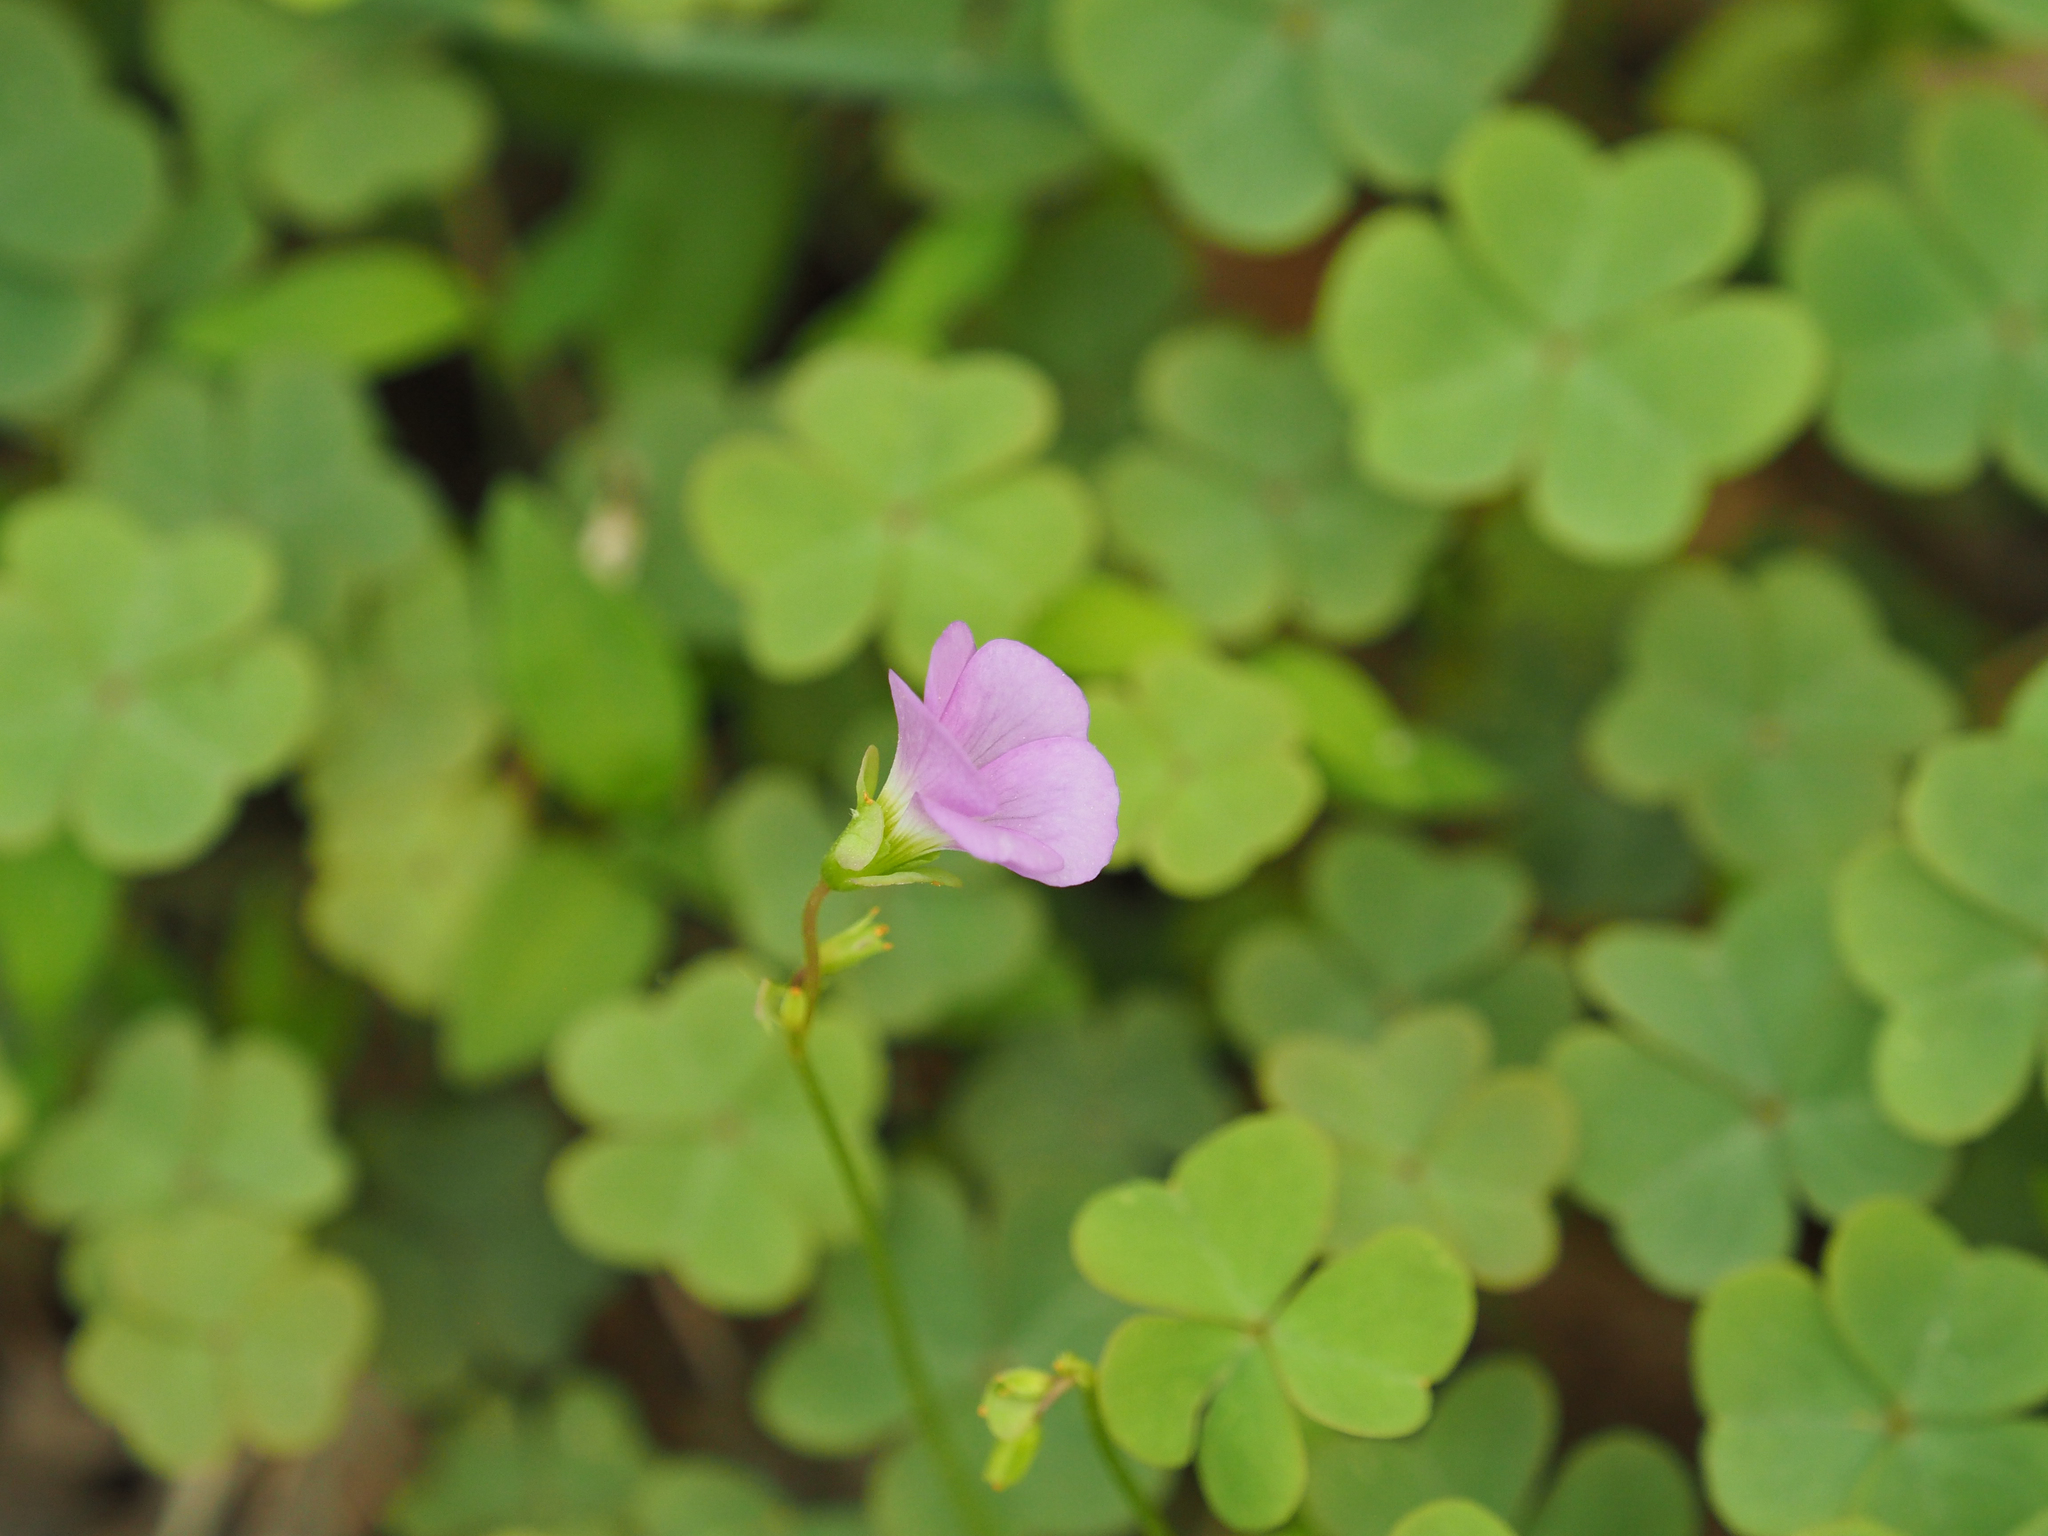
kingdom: Plantae
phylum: Tracheophyta
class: Magnoliopsida
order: Oxalidales
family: Oxalidaceae
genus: Oxalis
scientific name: Oxalis violacea
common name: Violet wood-sorrel
